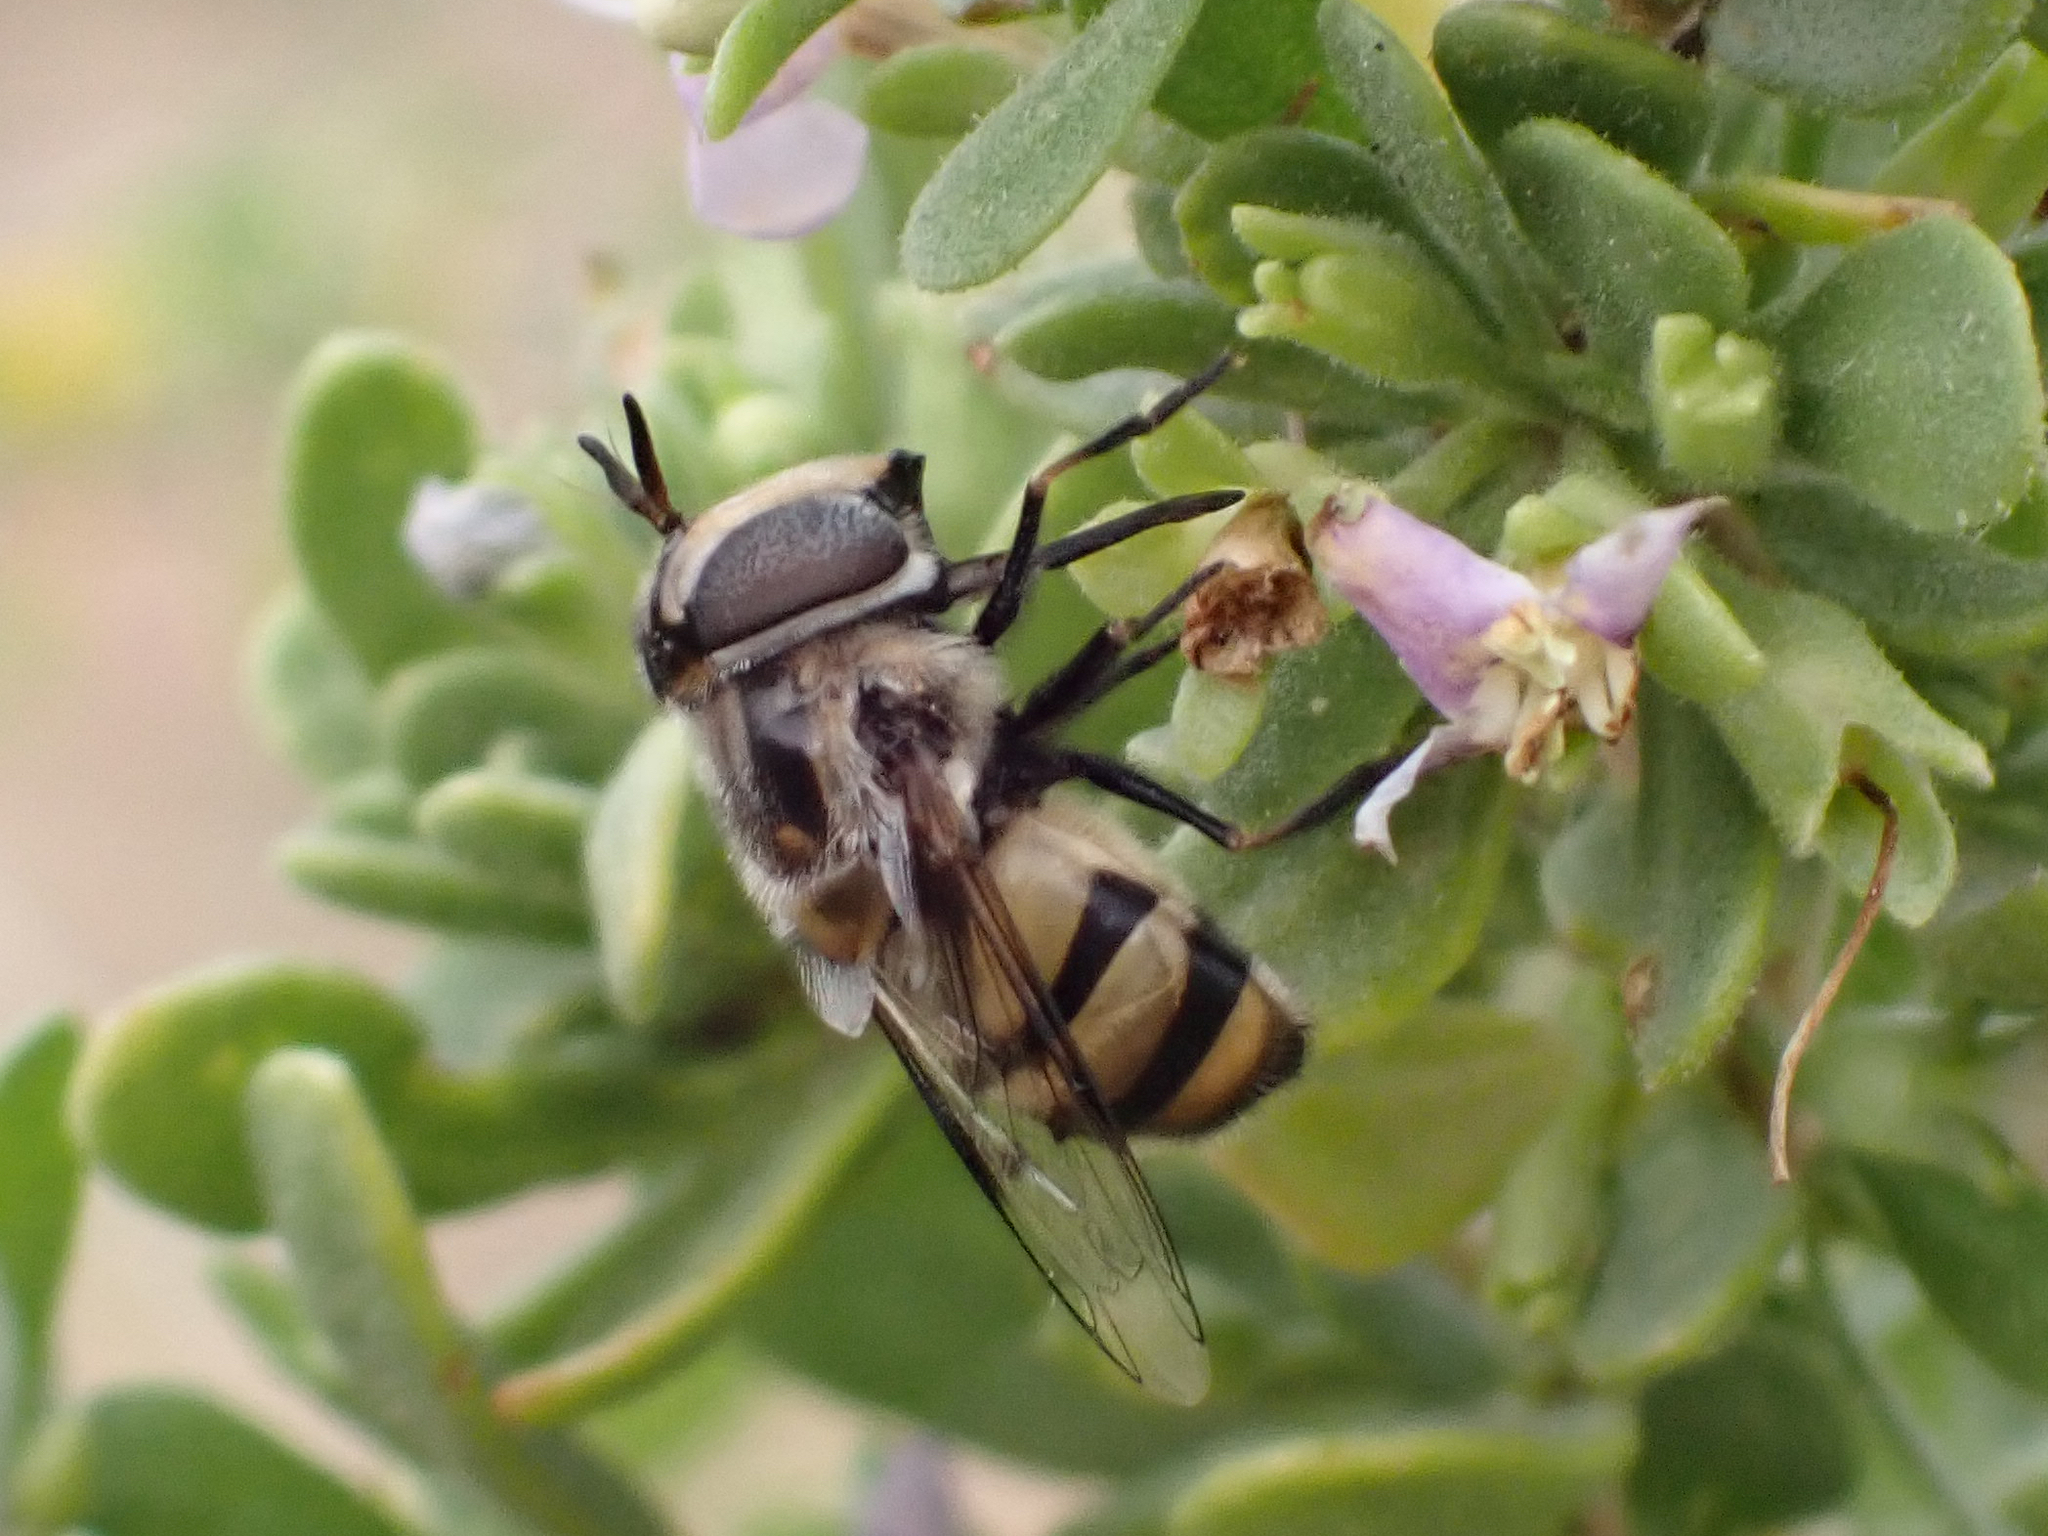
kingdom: Animalia
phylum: Arthropoda
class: Insecta
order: Diptera
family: Syrphidae
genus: Copestylum
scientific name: Copestylum fornax
